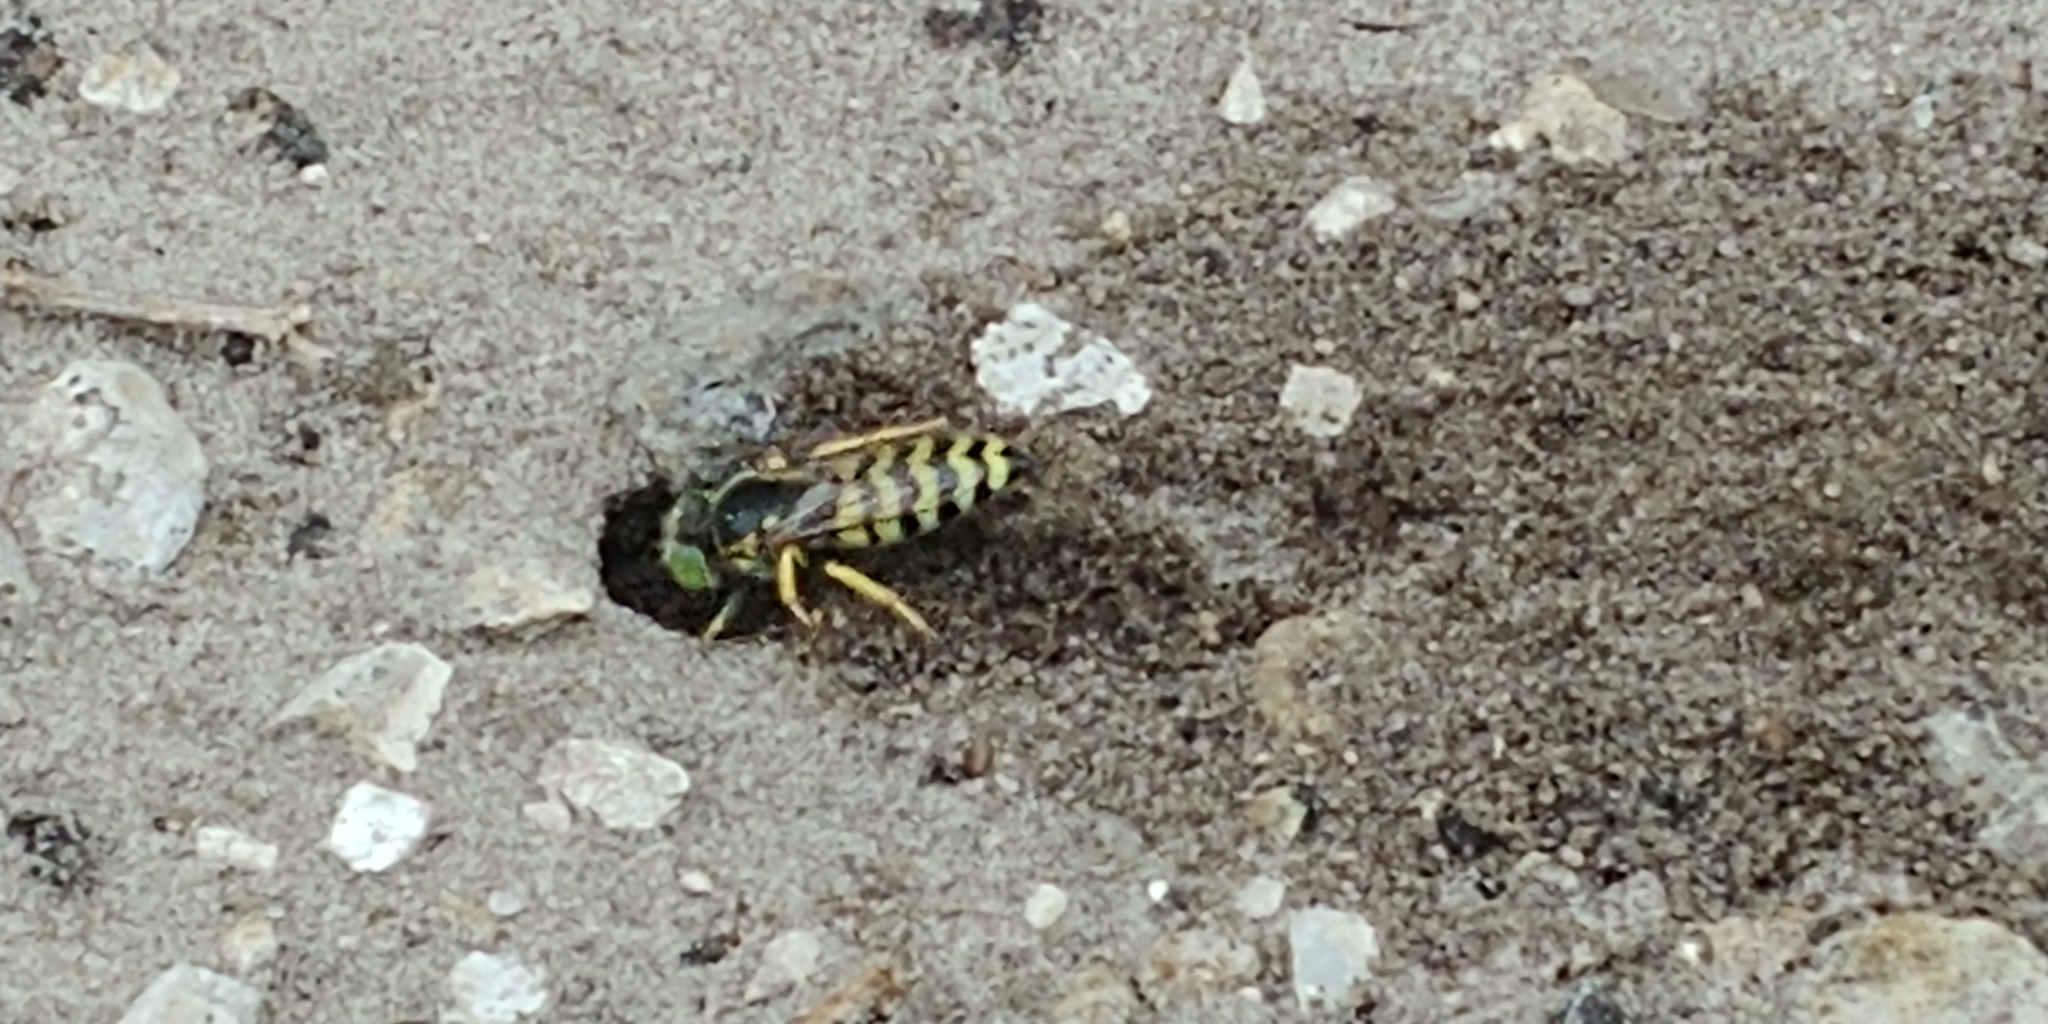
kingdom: Animalia
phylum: Arthropoda
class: Insecta
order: Hymenoptera
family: Crabronidae
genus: Bembix
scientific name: Bembix americana
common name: American sand wasp
